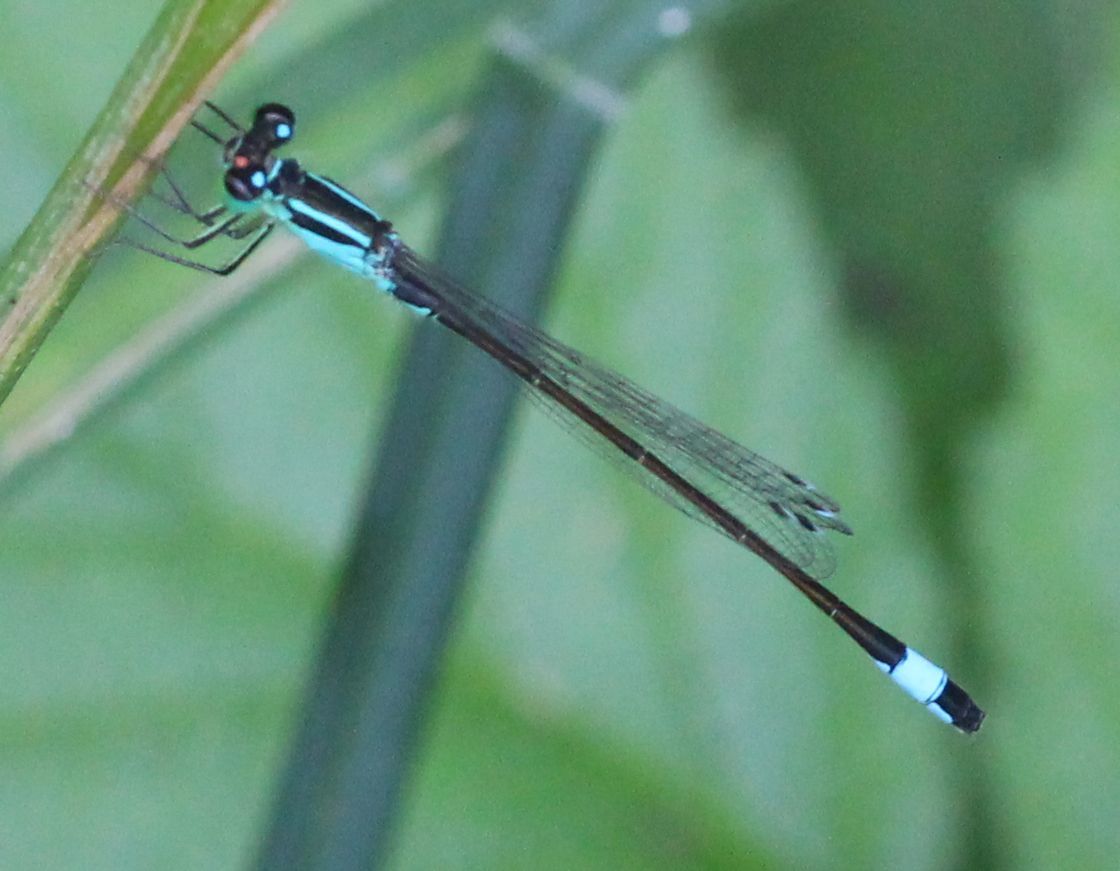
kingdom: Animalia
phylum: Arthropoda
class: Insecta
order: Odonata
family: Coenagrionidae
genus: Ischnura
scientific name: Ischnura elegans
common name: Blue-tailed damselfly
